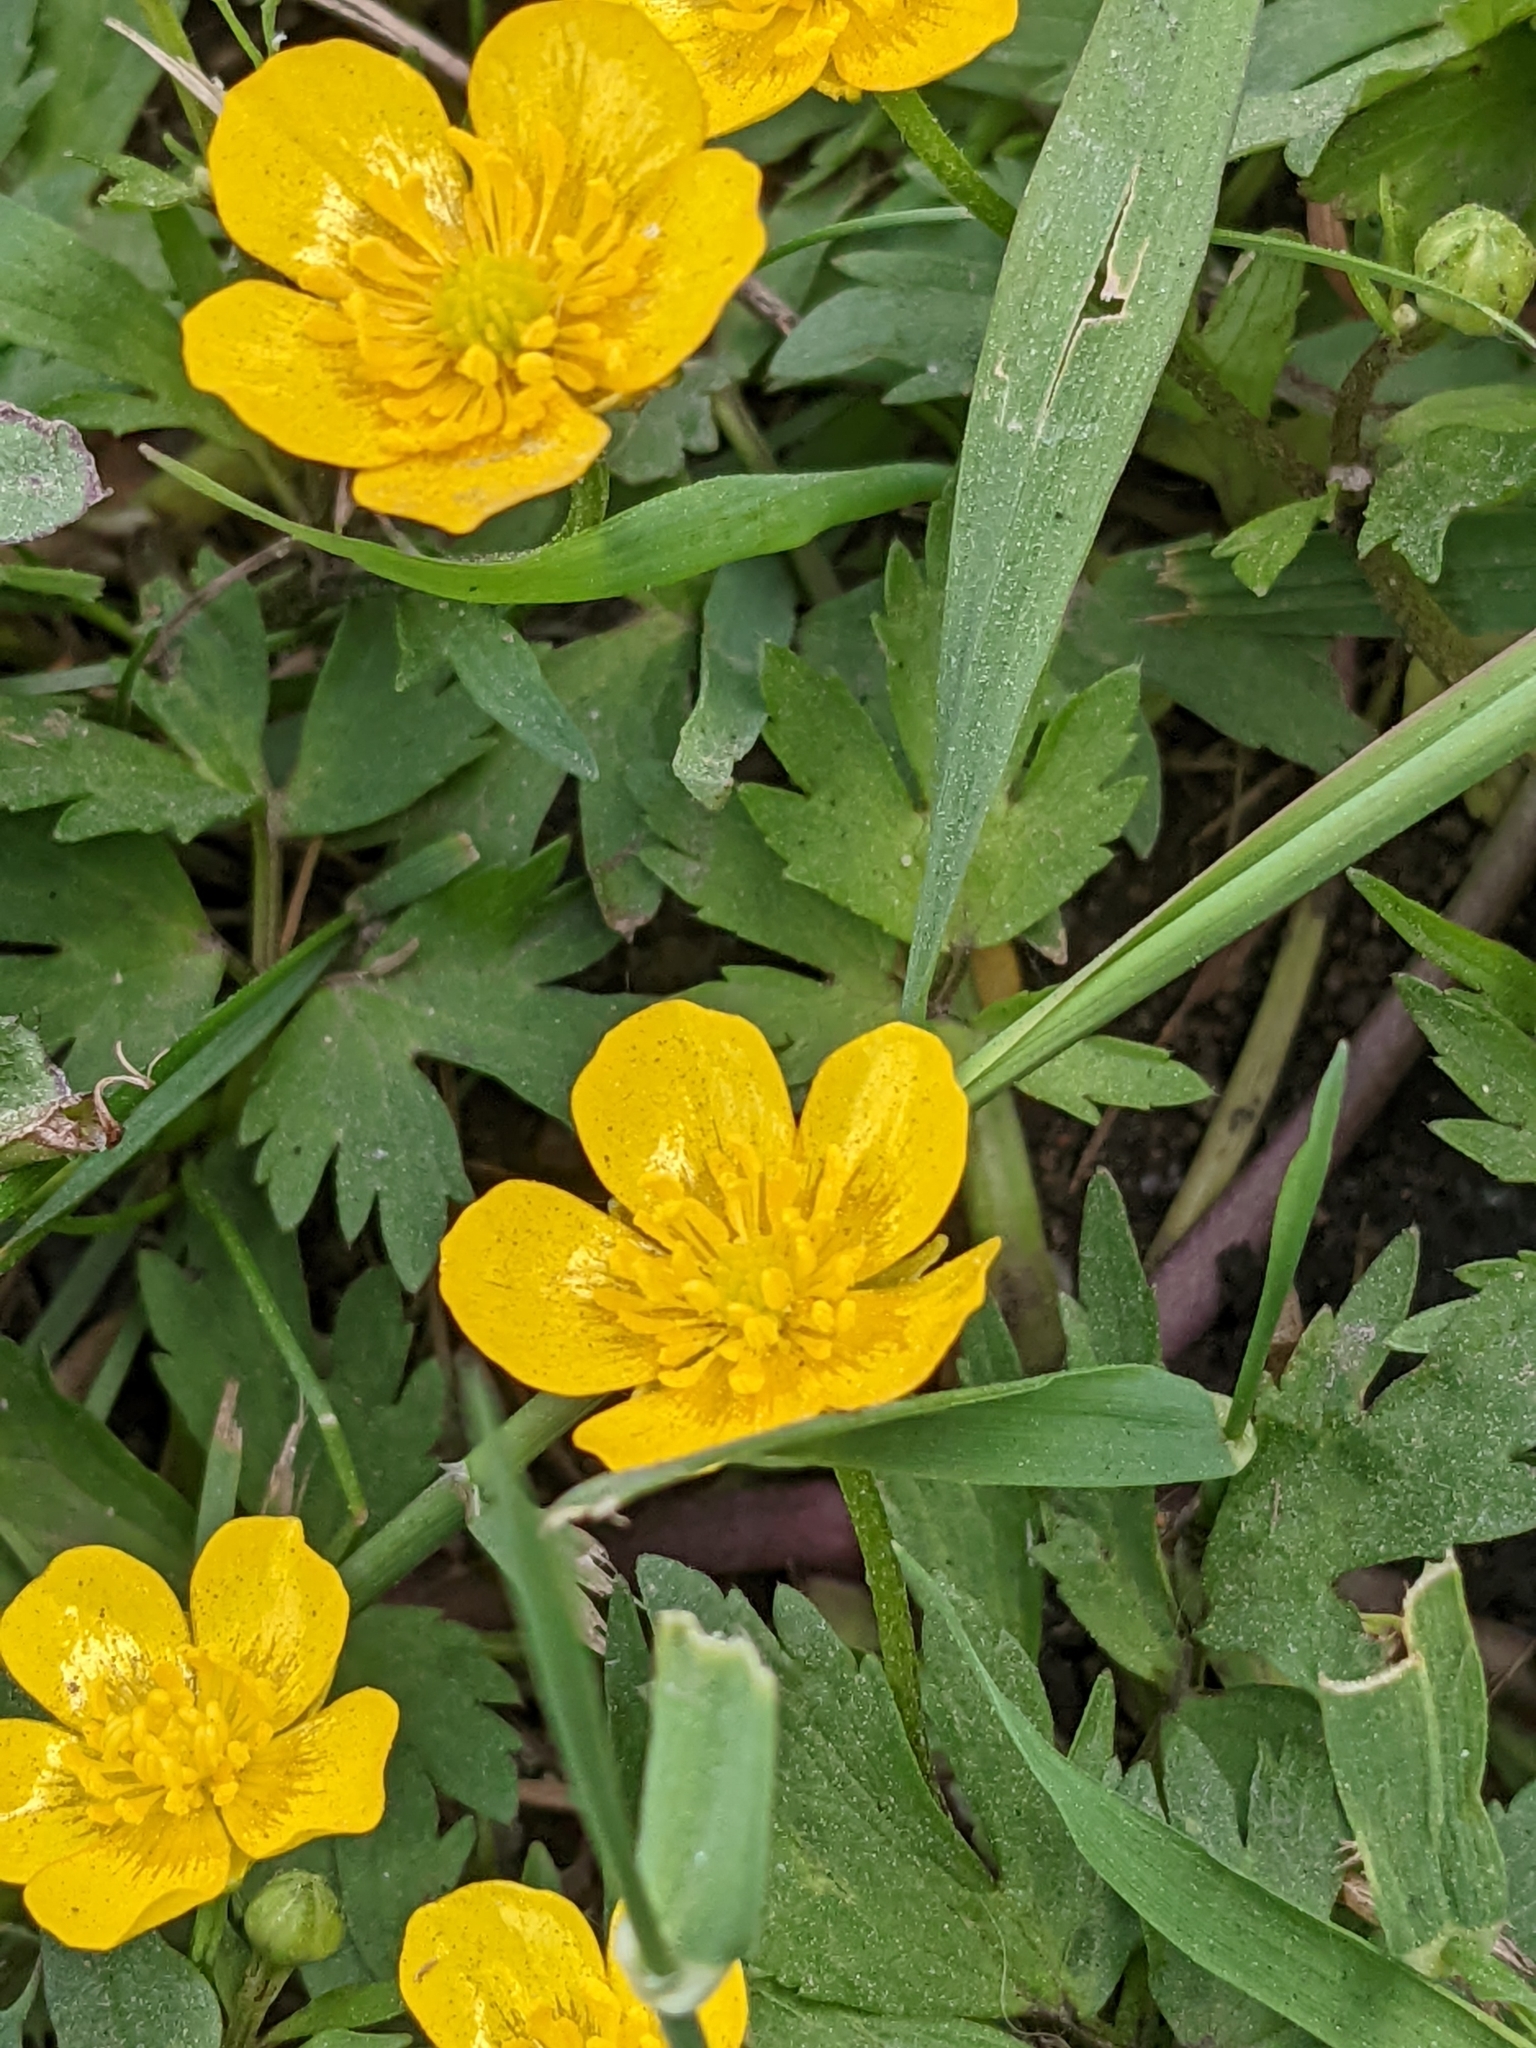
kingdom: Plantae
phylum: Tracheophyta
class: Magnoliopsida
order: Ranunculales
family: Ranunculaceae
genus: Ranunculus
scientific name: Ranunculus repens
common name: Creeping buttercup
